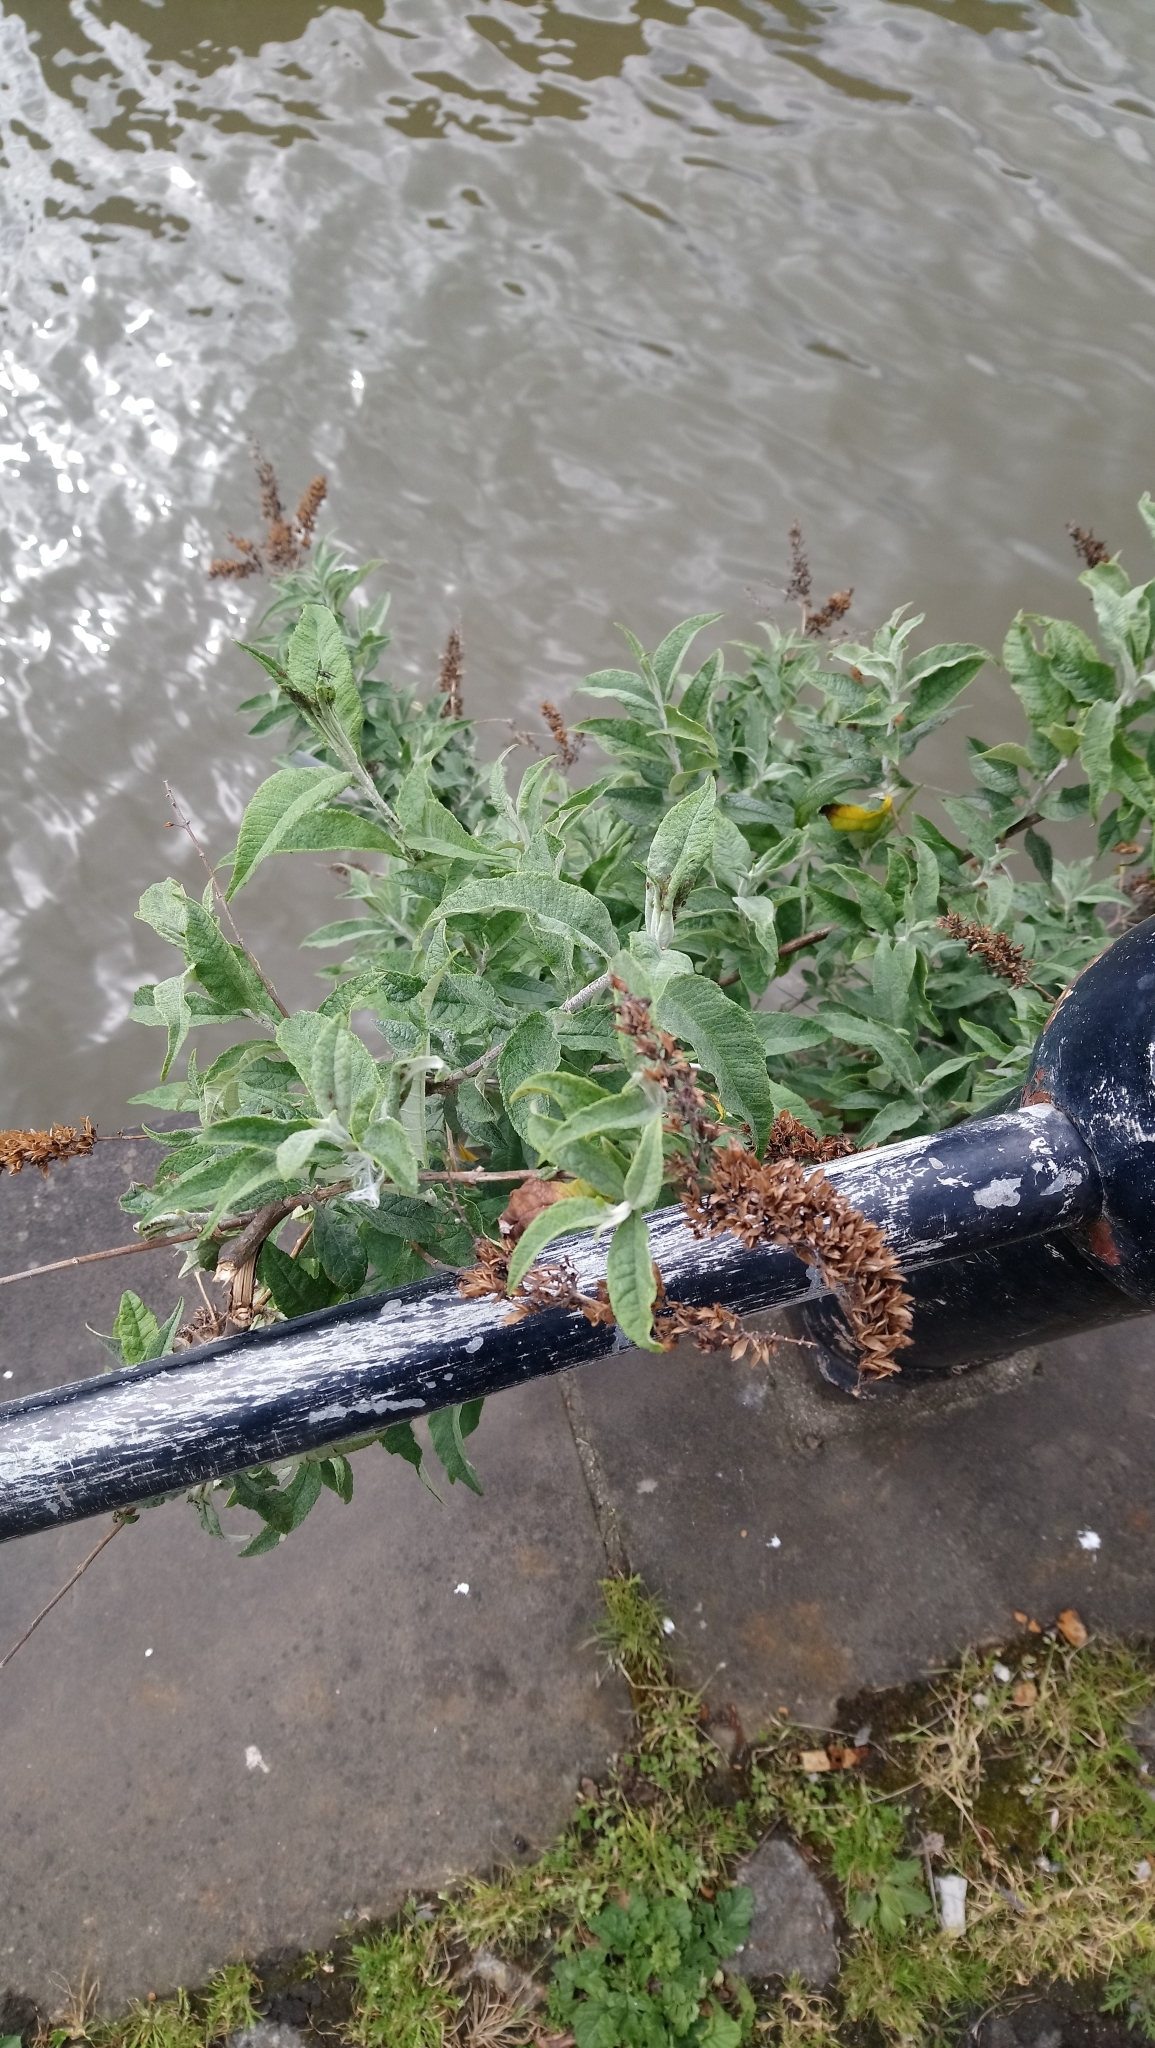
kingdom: Plantae
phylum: Tracheophyta
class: Magnoliopsida
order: Lamiales
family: Scrophulariaceae
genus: Buddleja
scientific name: Buddleja davidii
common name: Butterfly-bush
